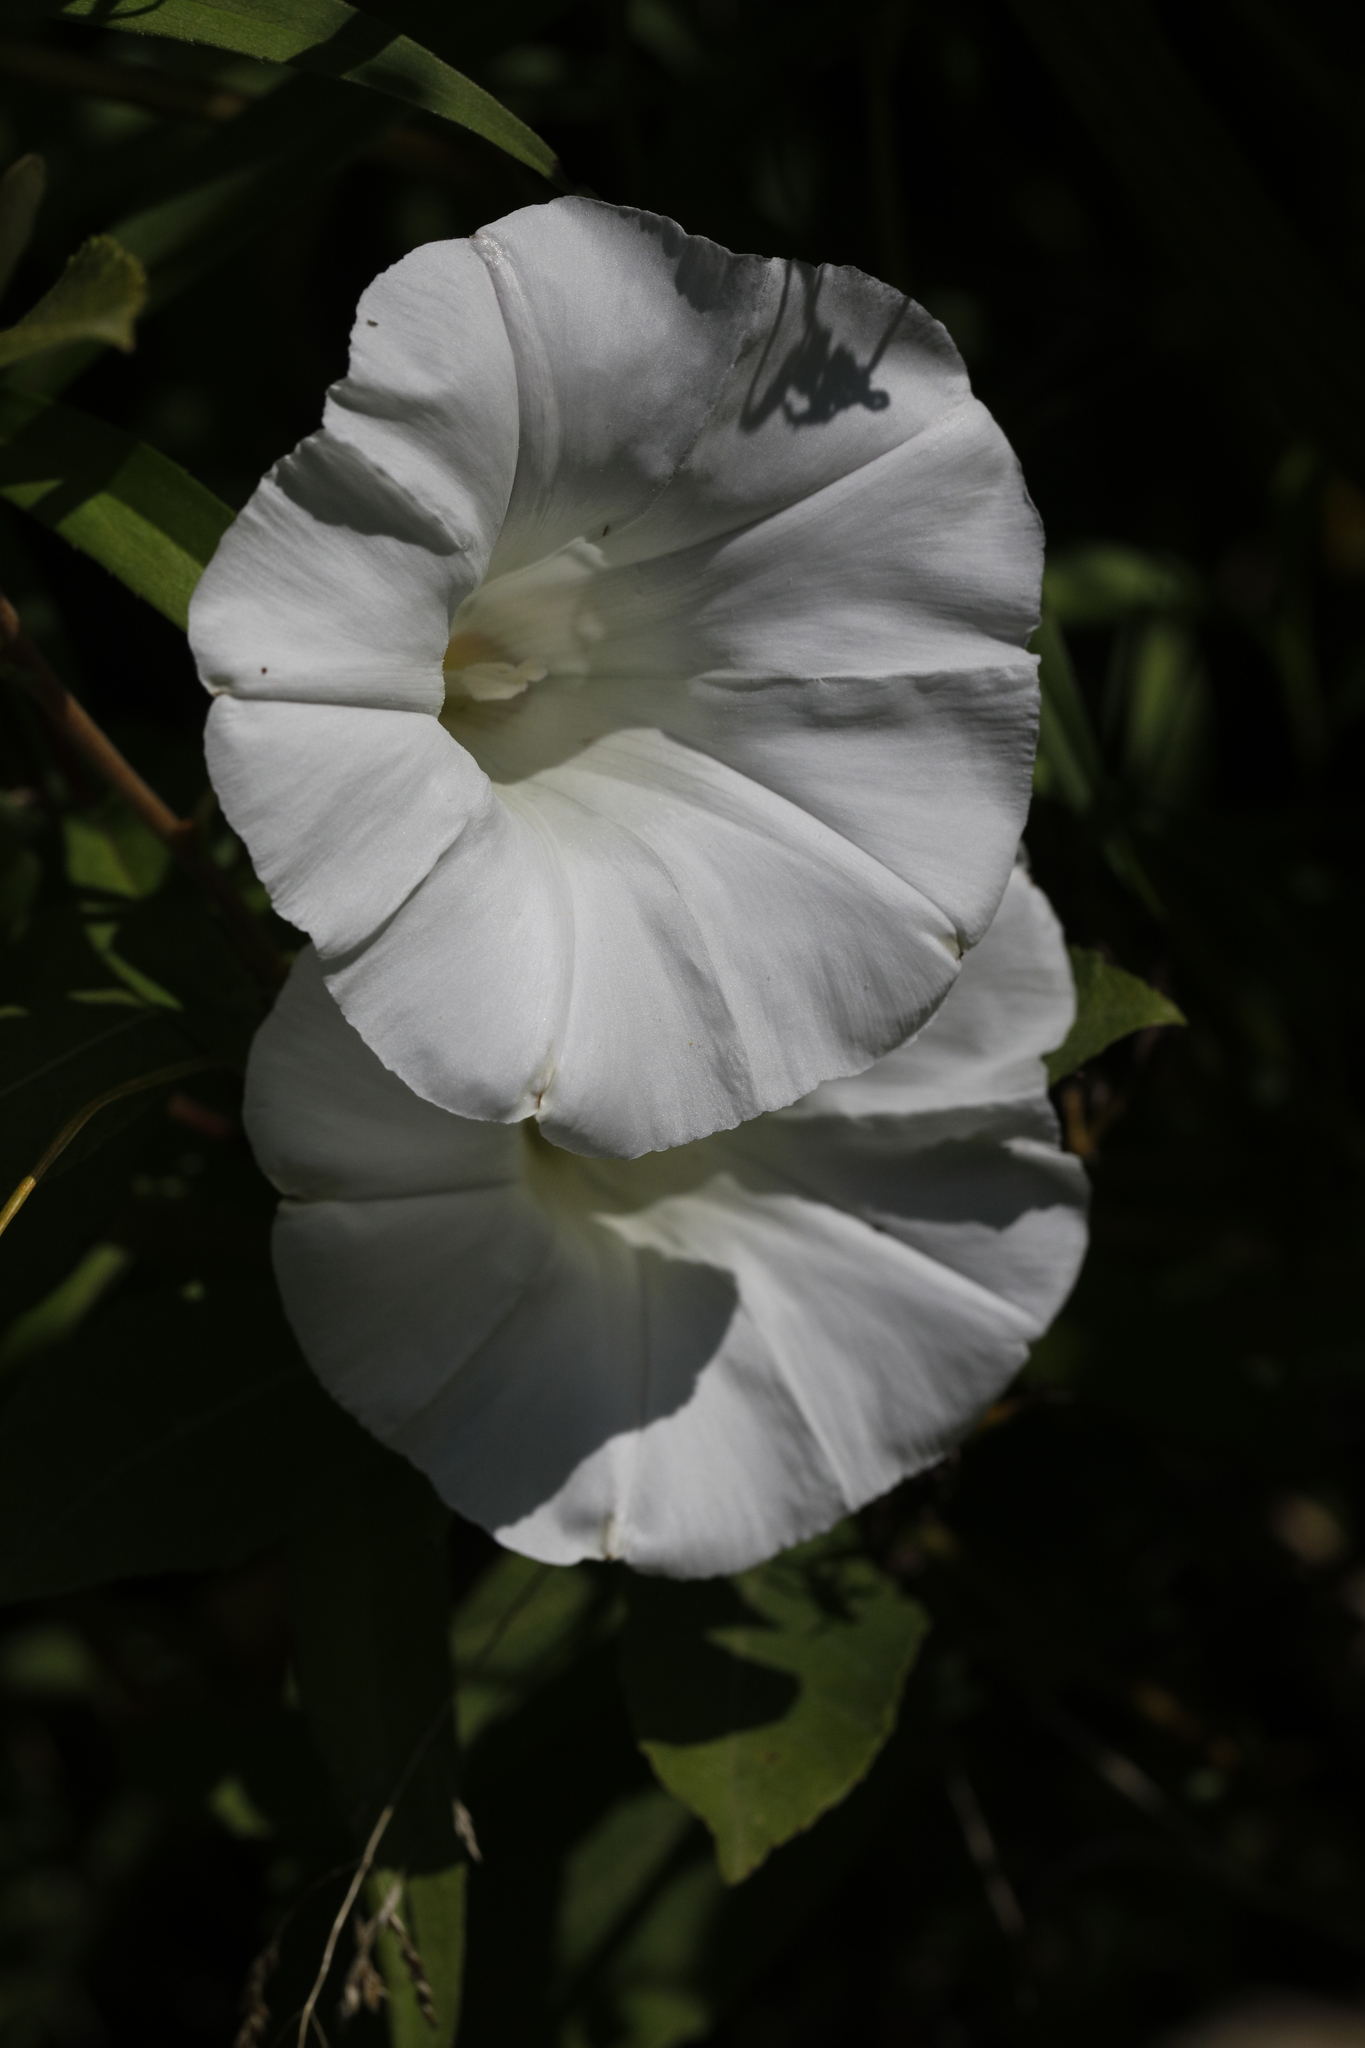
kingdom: Plantae
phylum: Tracheophyta
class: Magnoliopsida
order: Solanales
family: Convolvulaceae
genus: Calystegia
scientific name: Calystegia sepium
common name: Hedge bindweed
